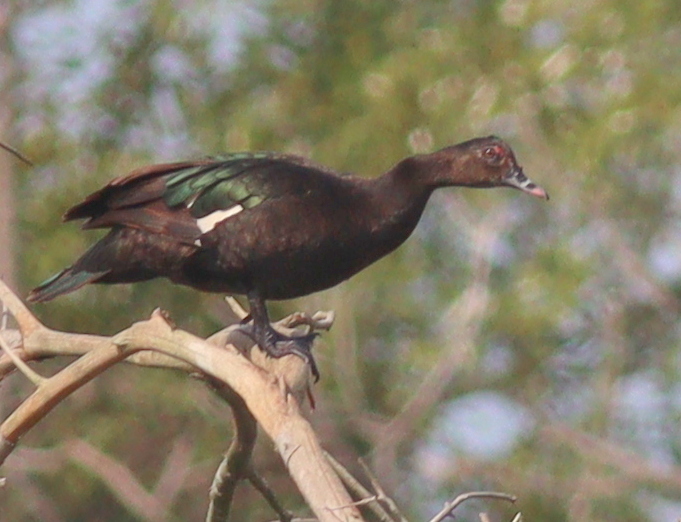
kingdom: Animalia
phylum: Chordata
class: Aves
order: Anseriformes
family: Anatidae
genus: Cairina
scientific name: Cairina moschata
